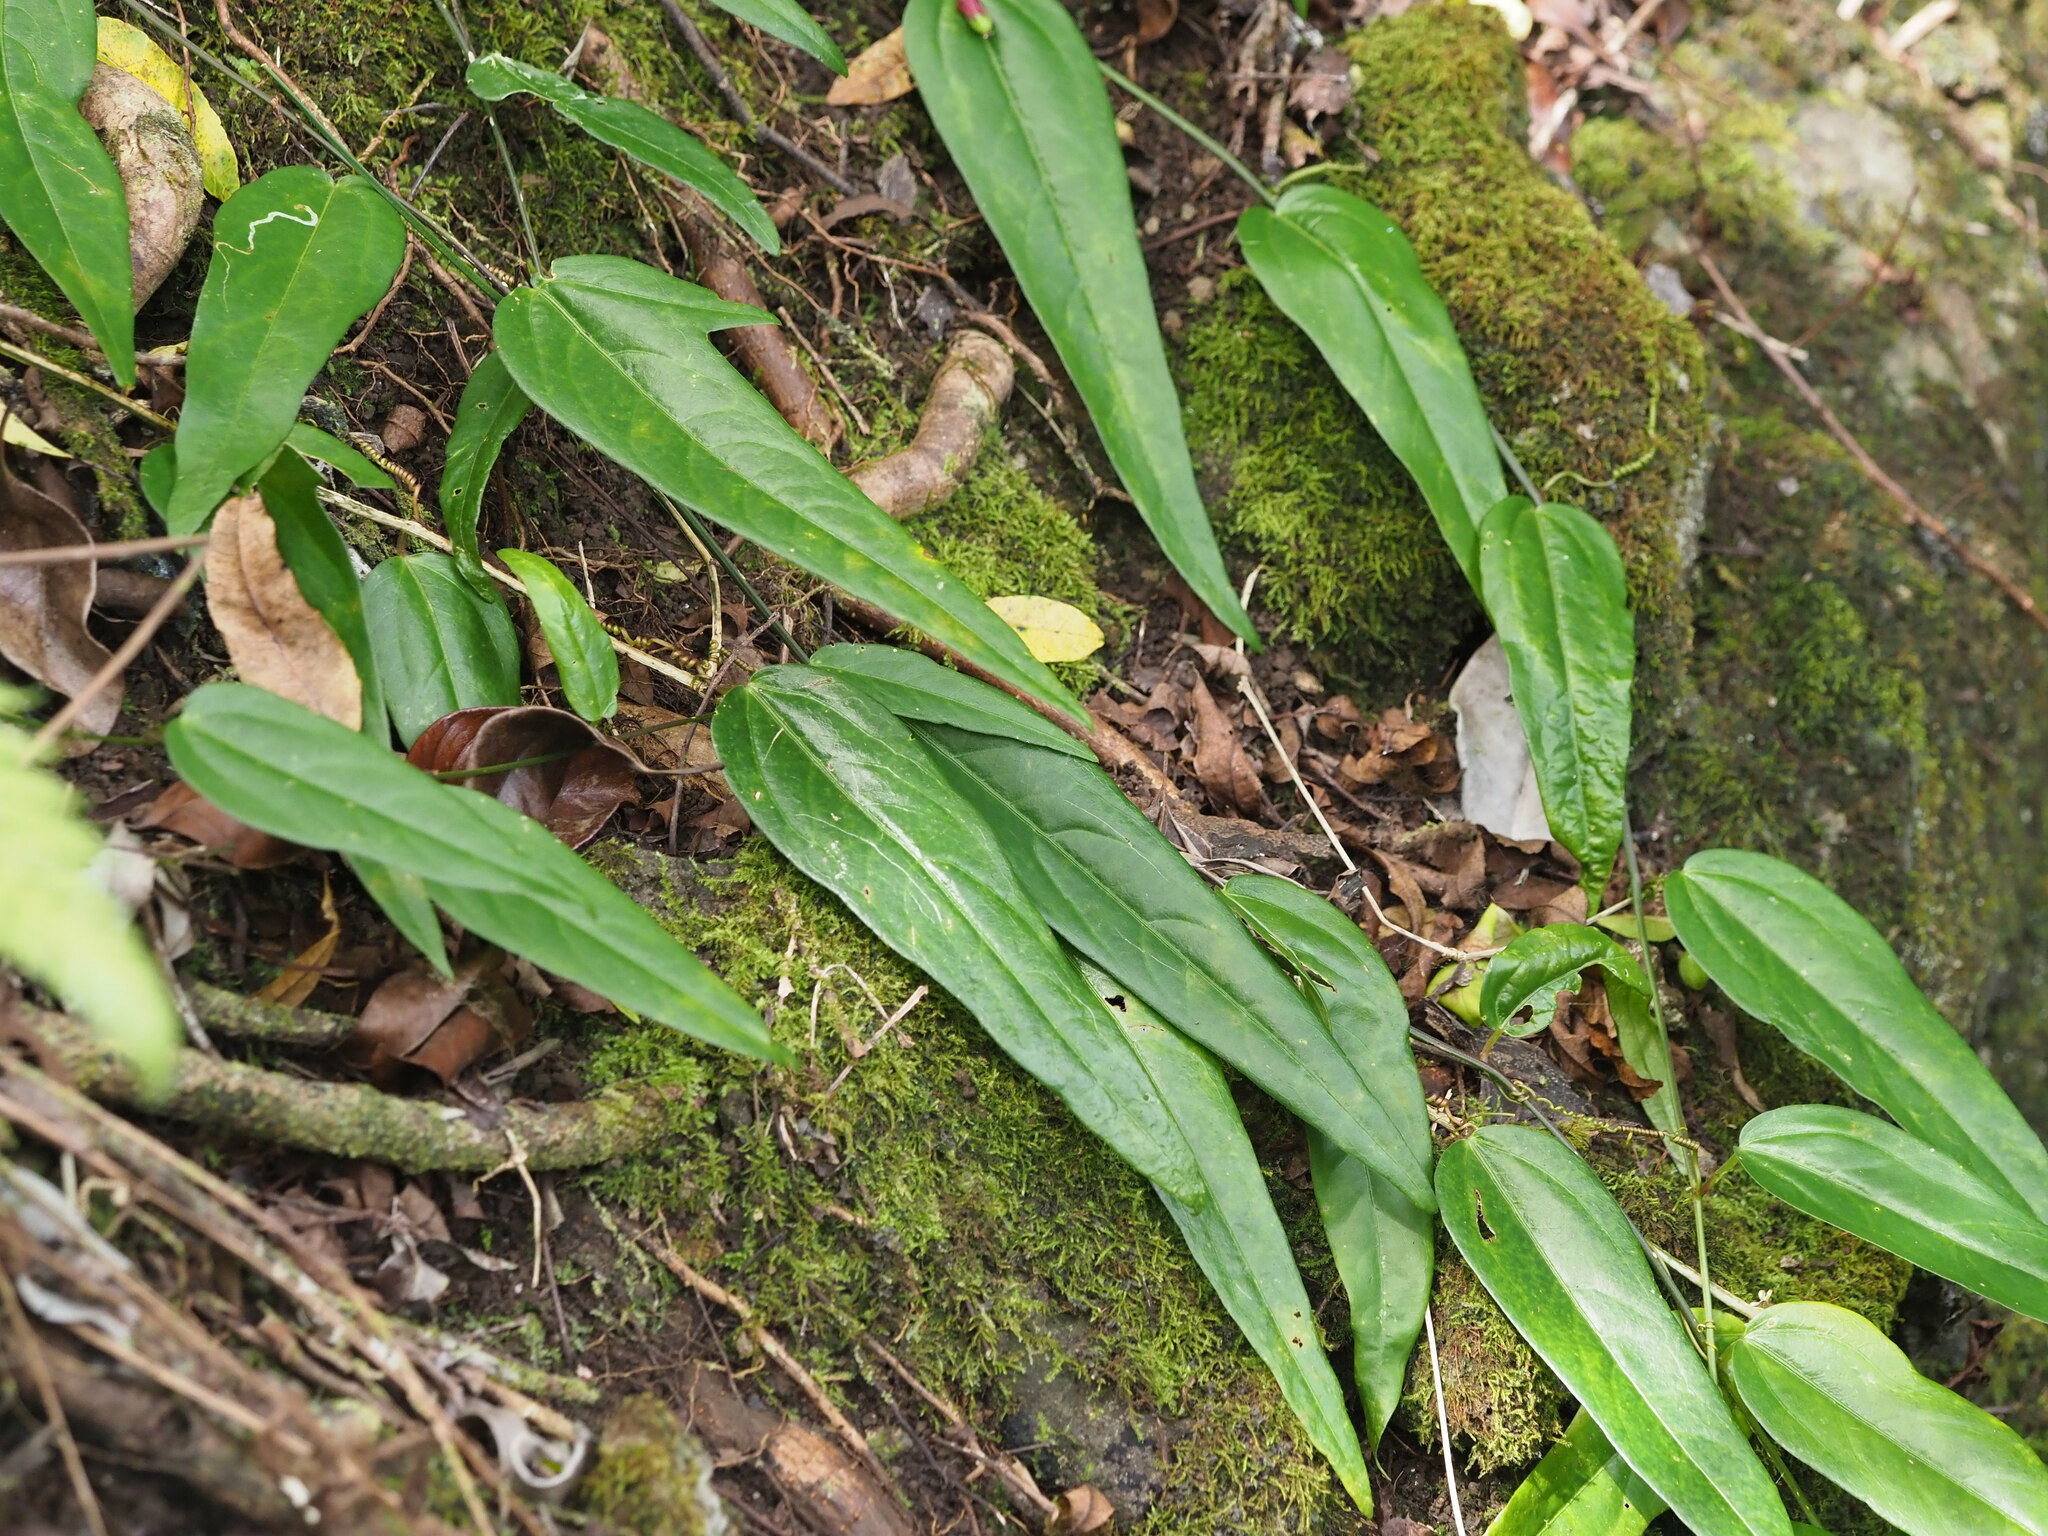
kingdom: Plantae
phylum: Tracheophyta
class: Magnoliopsida
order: Malpighiales
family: Passifloraceae
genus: Passiflora
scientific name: Passiflora suberosa
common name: Wild passionfruit
